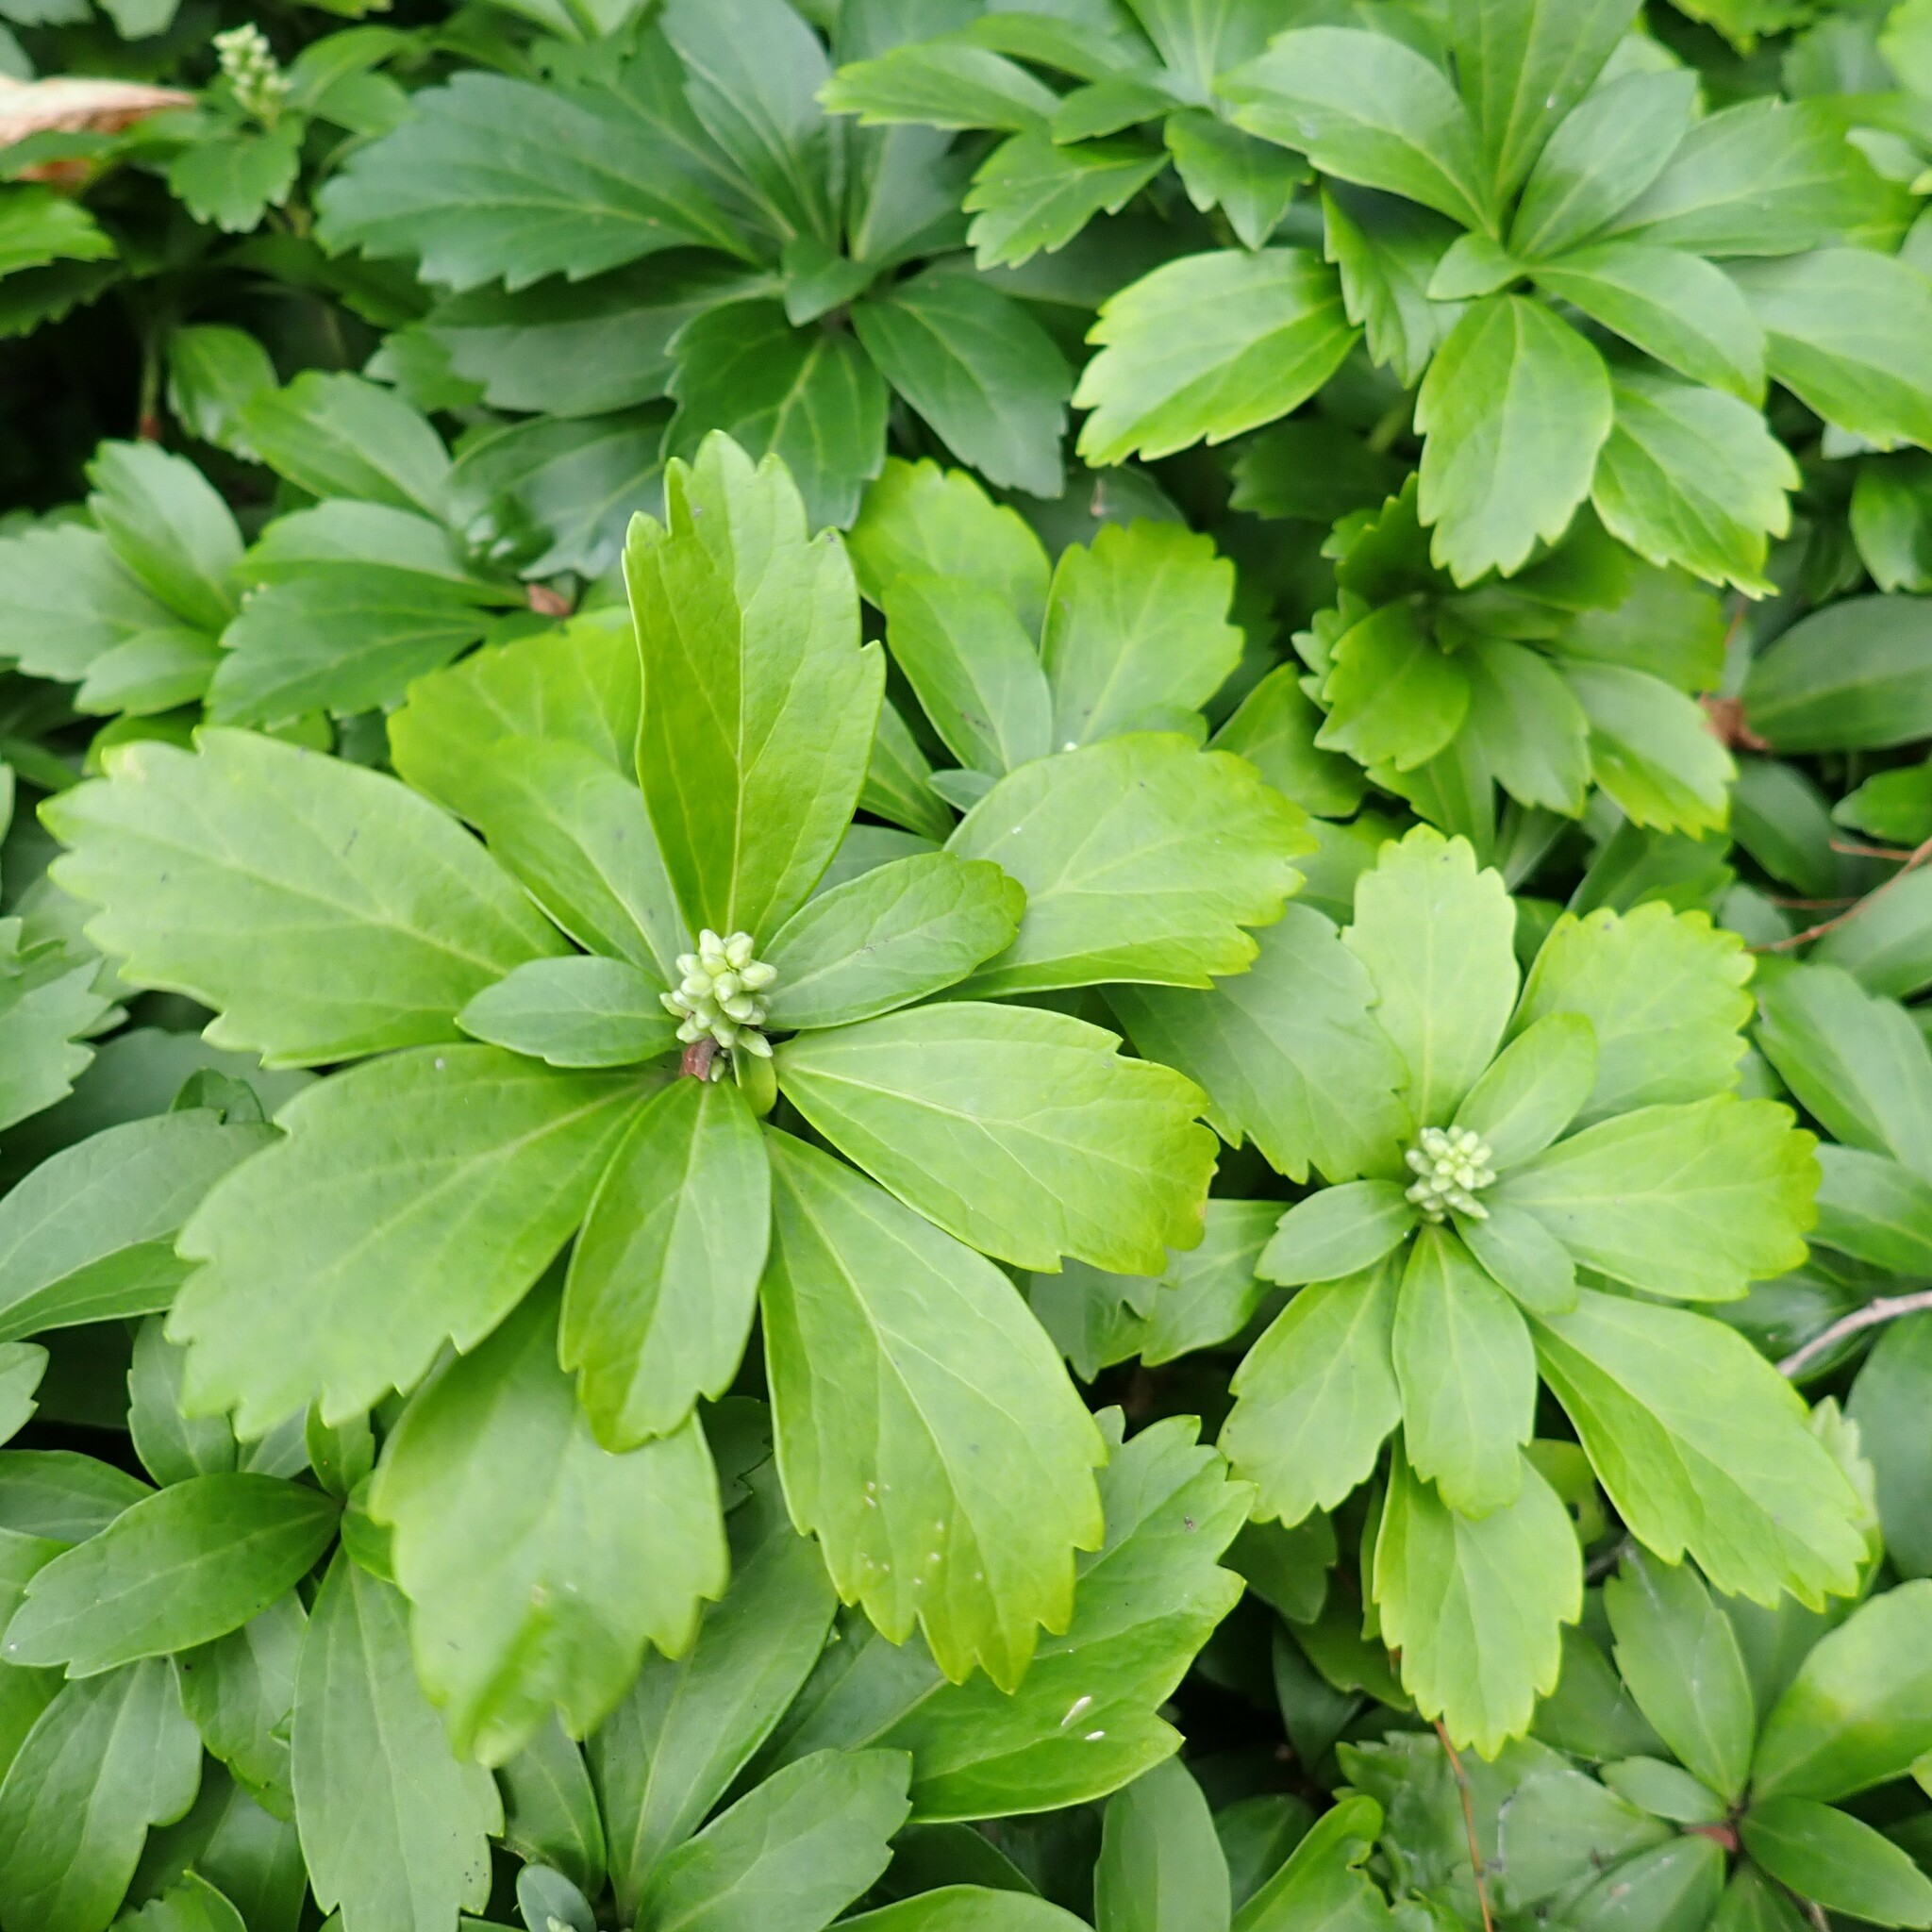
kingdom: Plantae
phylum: Tracheophyta
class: Magnoliopsida
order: Buxales
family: Buxaceae
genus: Pachysandra
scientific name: Pachysandra terminalis
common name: Japanese pachysandra
